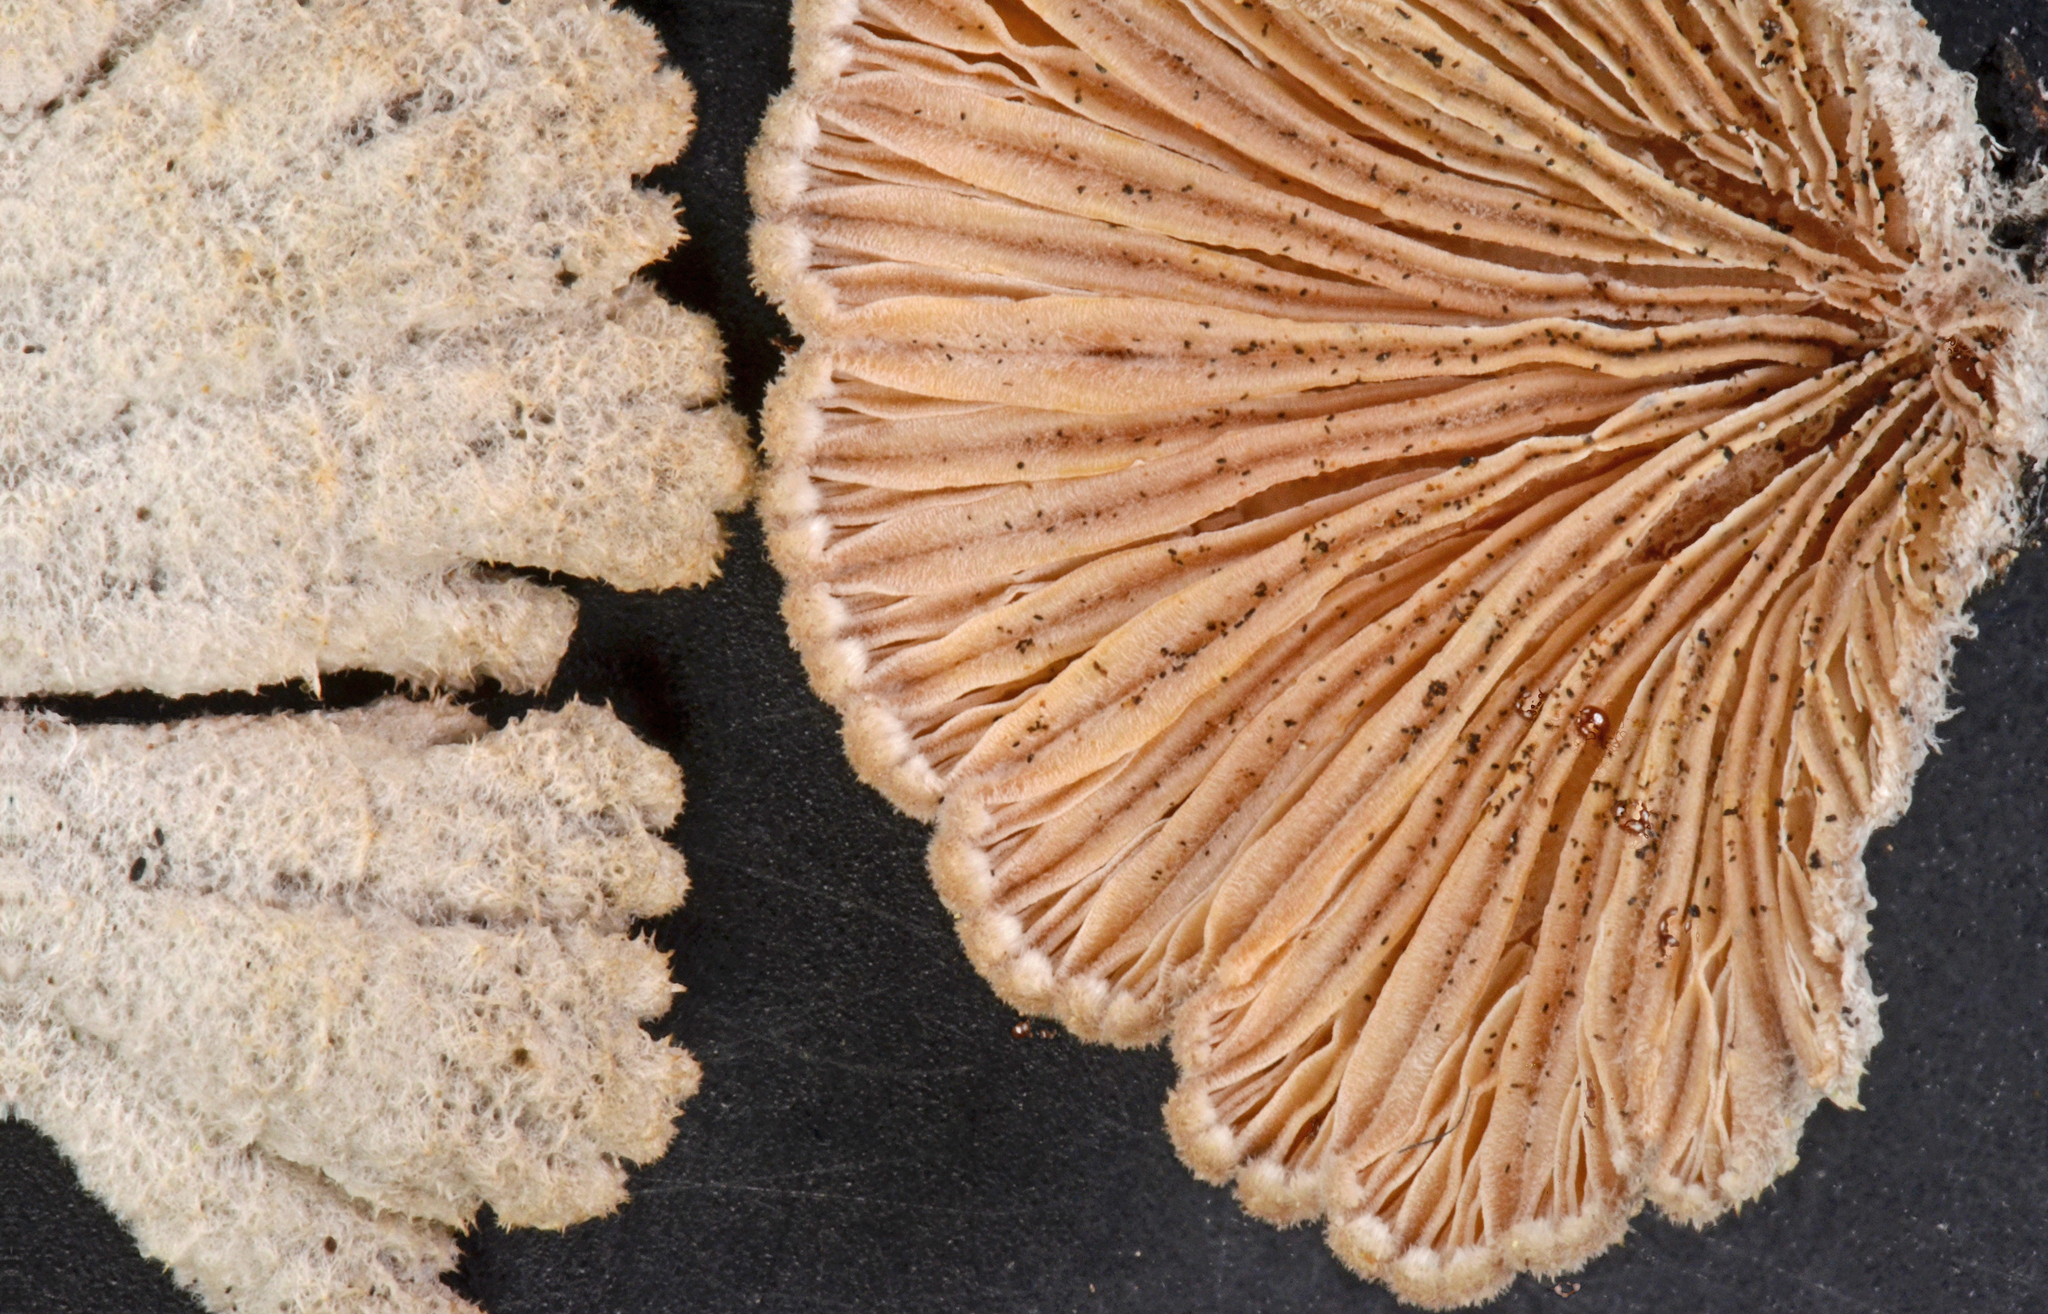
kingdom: Fungi
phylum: Basidiomycota
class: Agaricomycetes
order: Agaricales
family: Schizophyllaceae
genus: Schizophyllum
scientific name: Schizophyllum commune
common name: Common porecrust
